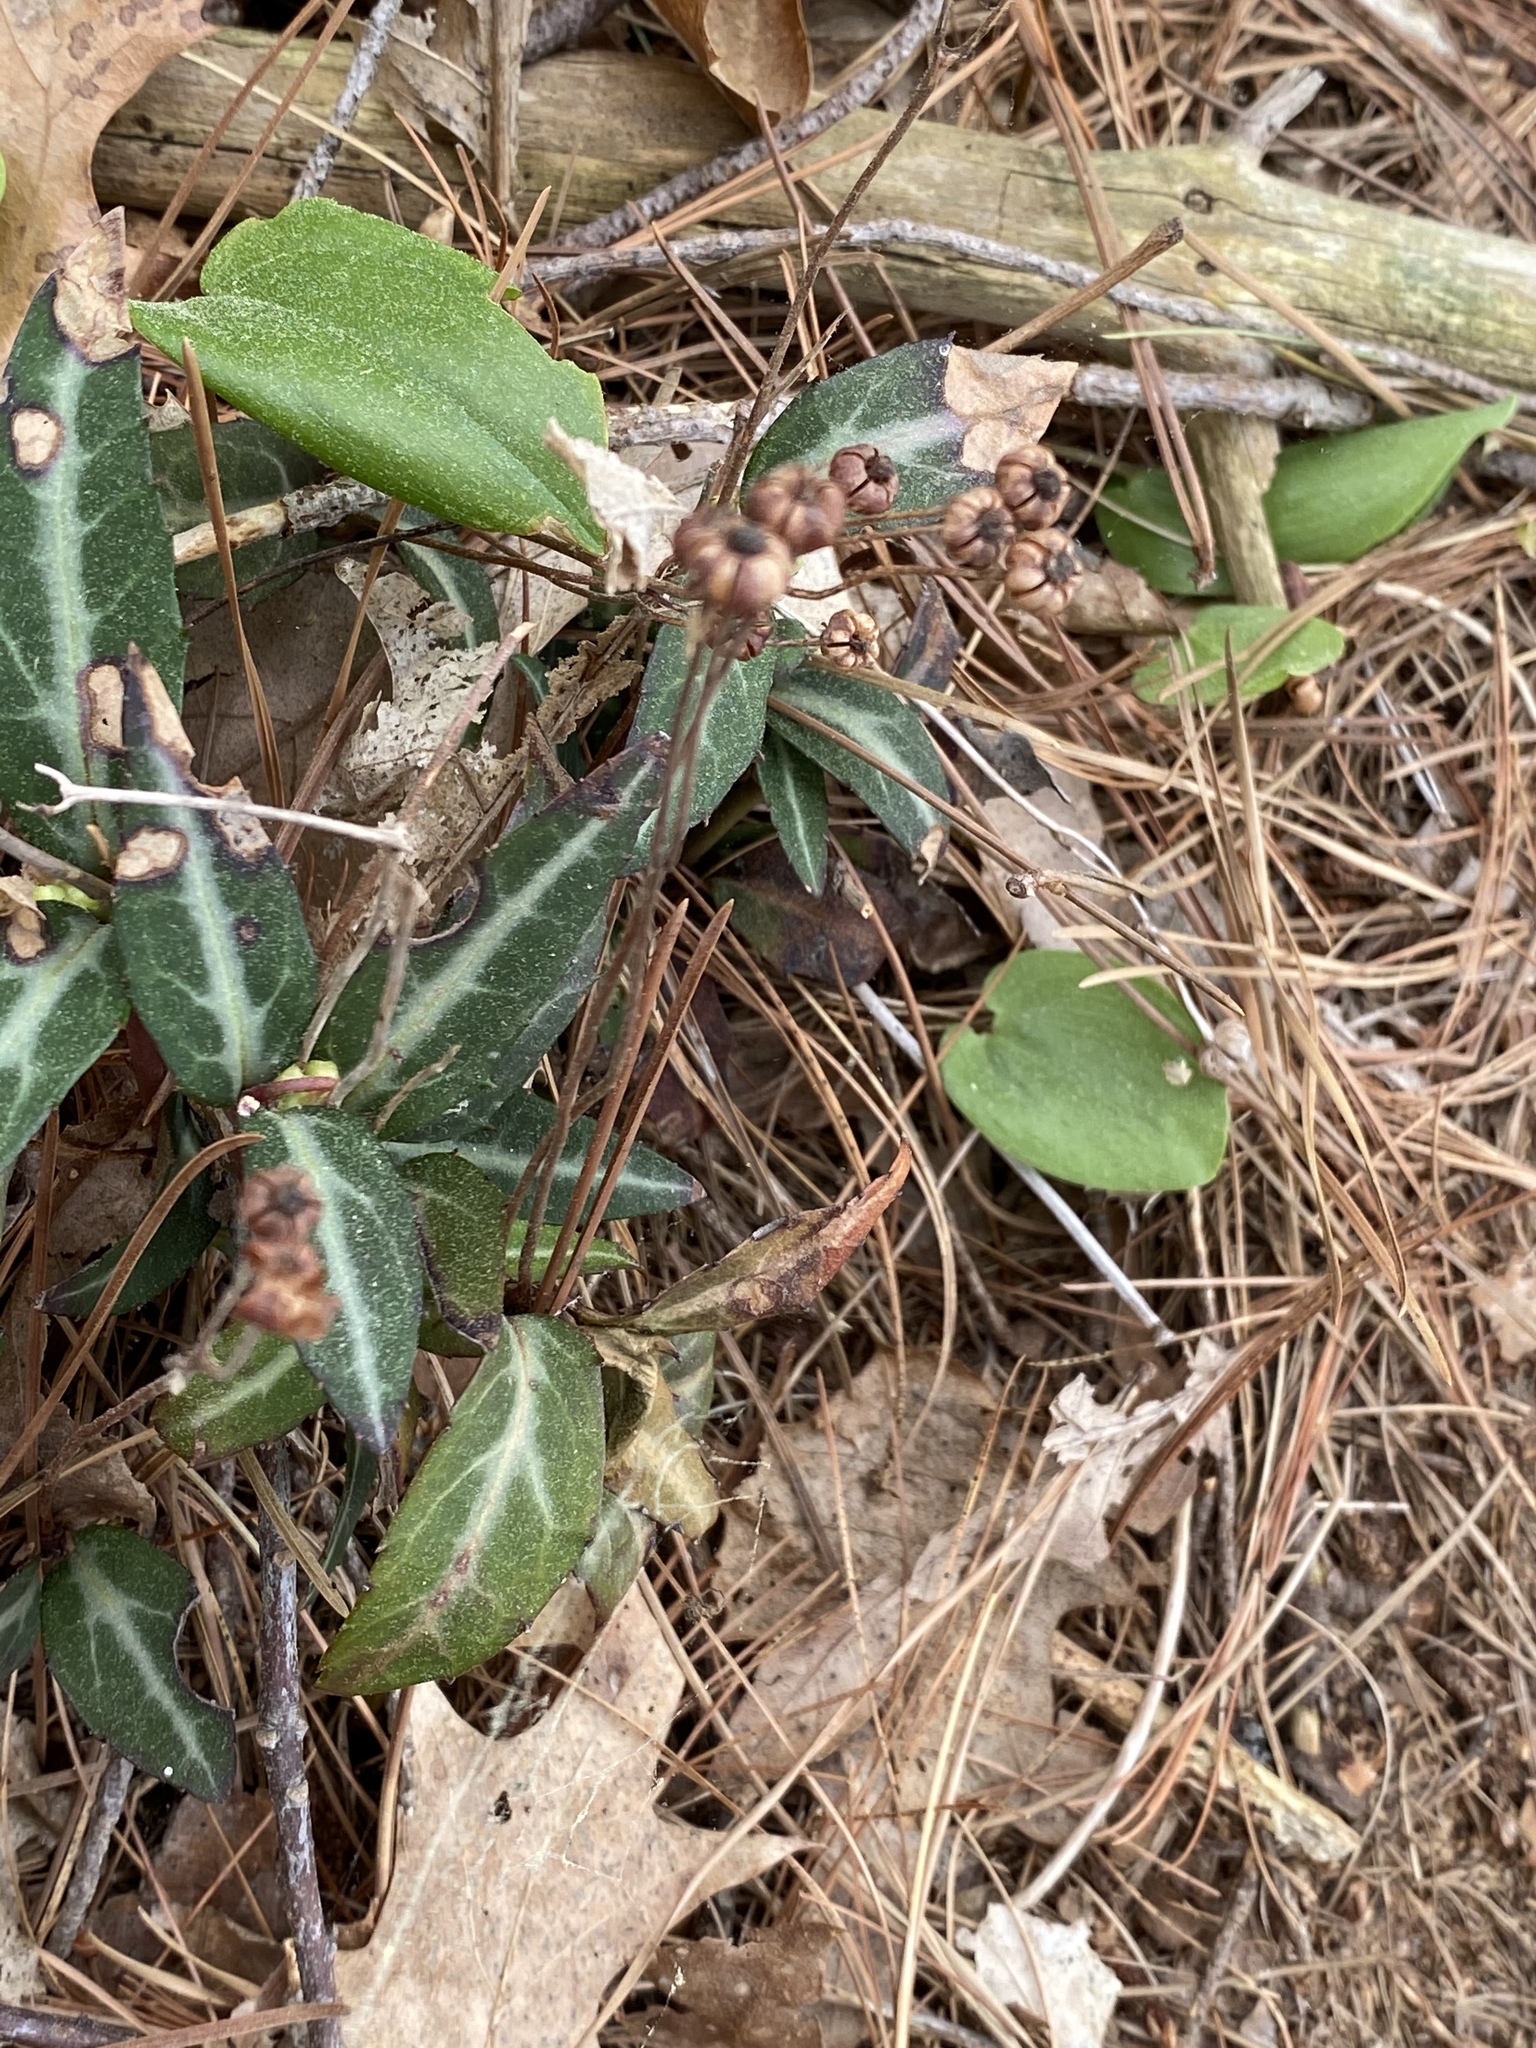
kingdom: Plantae
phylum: Tracheophyta
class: Magnoliopsida
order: Ericales
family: Ericaceae
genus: Chimaphila
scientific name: Chimaphila maculata
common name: Spotted pipsissewa
